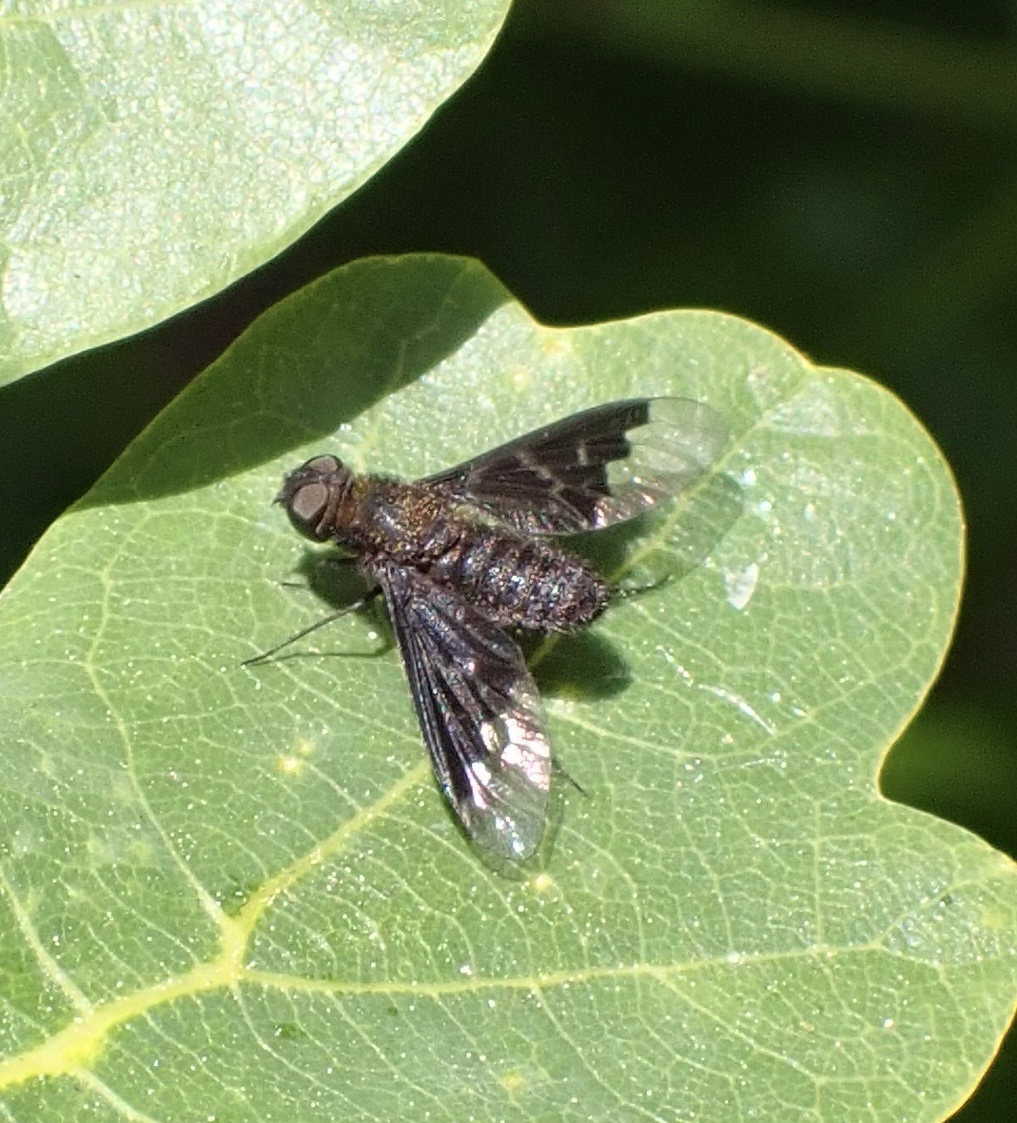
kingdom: Animalia
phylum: Arthropoda
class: Insecta
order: Diptera
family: Bombyliidae
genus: Hemipenthes
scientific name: Hemipenthes morio
